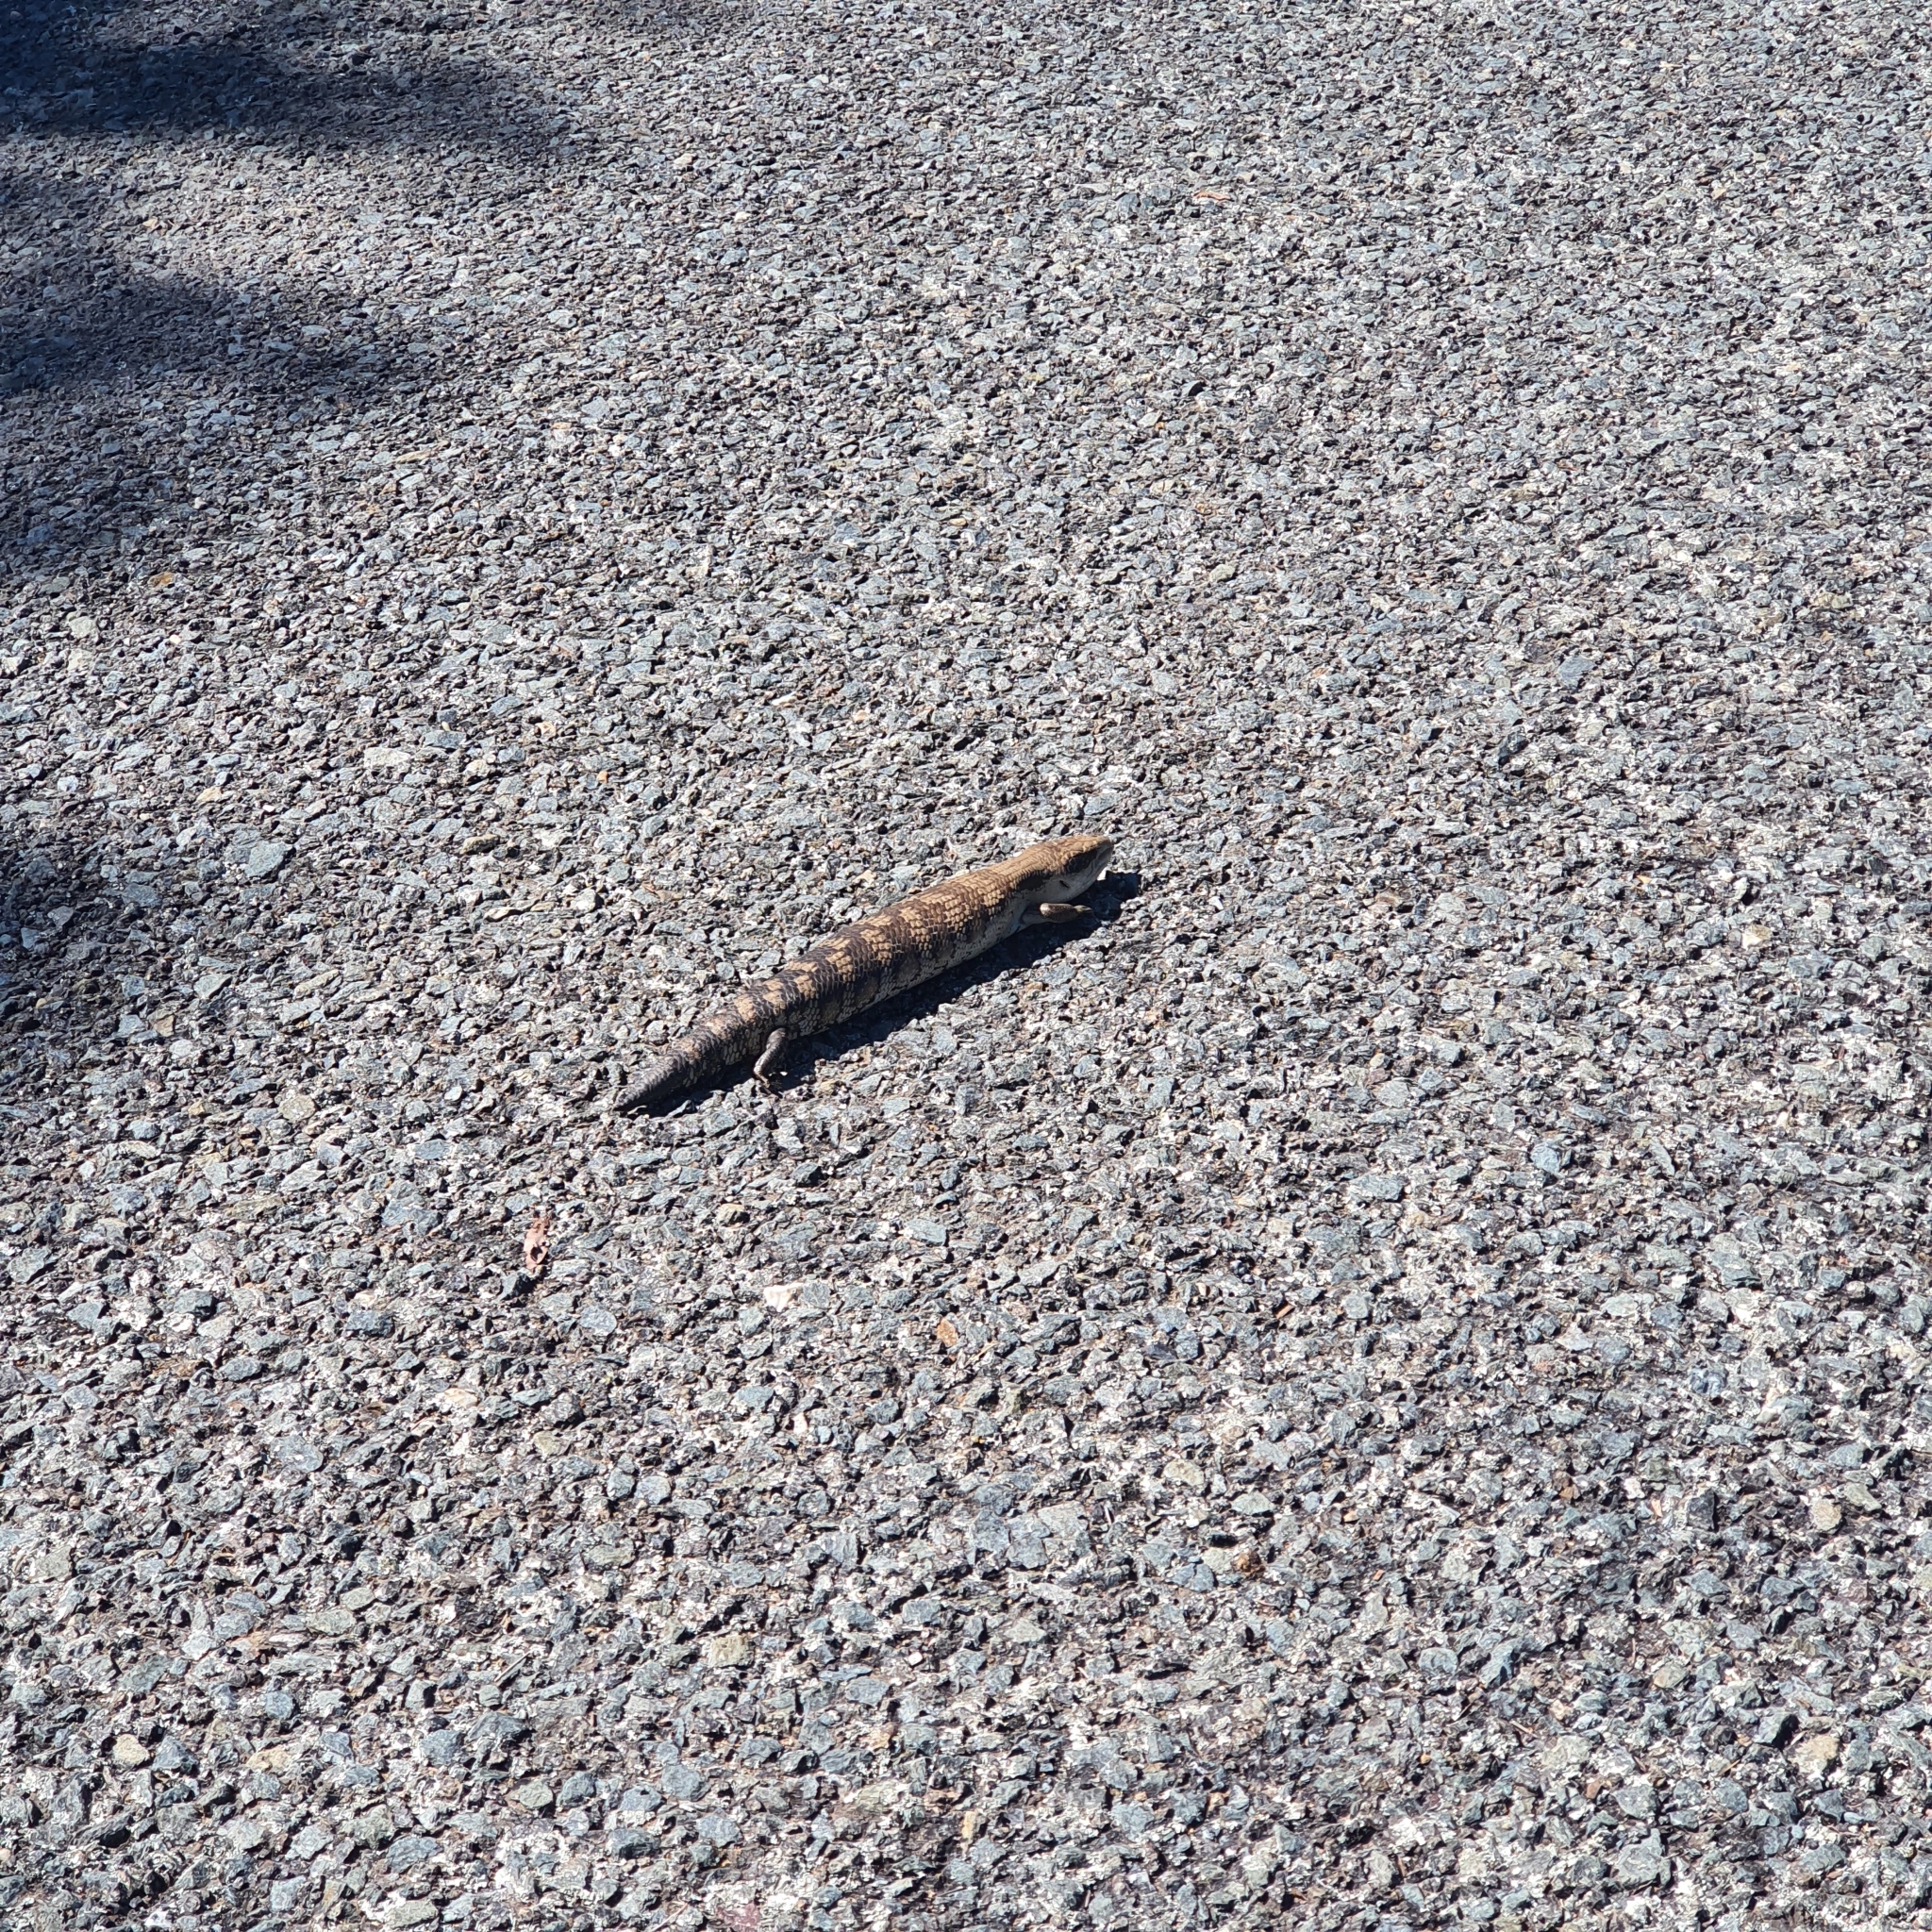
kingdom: Animalia
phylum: Chordata
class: Squamata
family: Scincidae
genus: Tiliqua
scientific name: Tiliqua scincoides
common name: Common bluetongue
